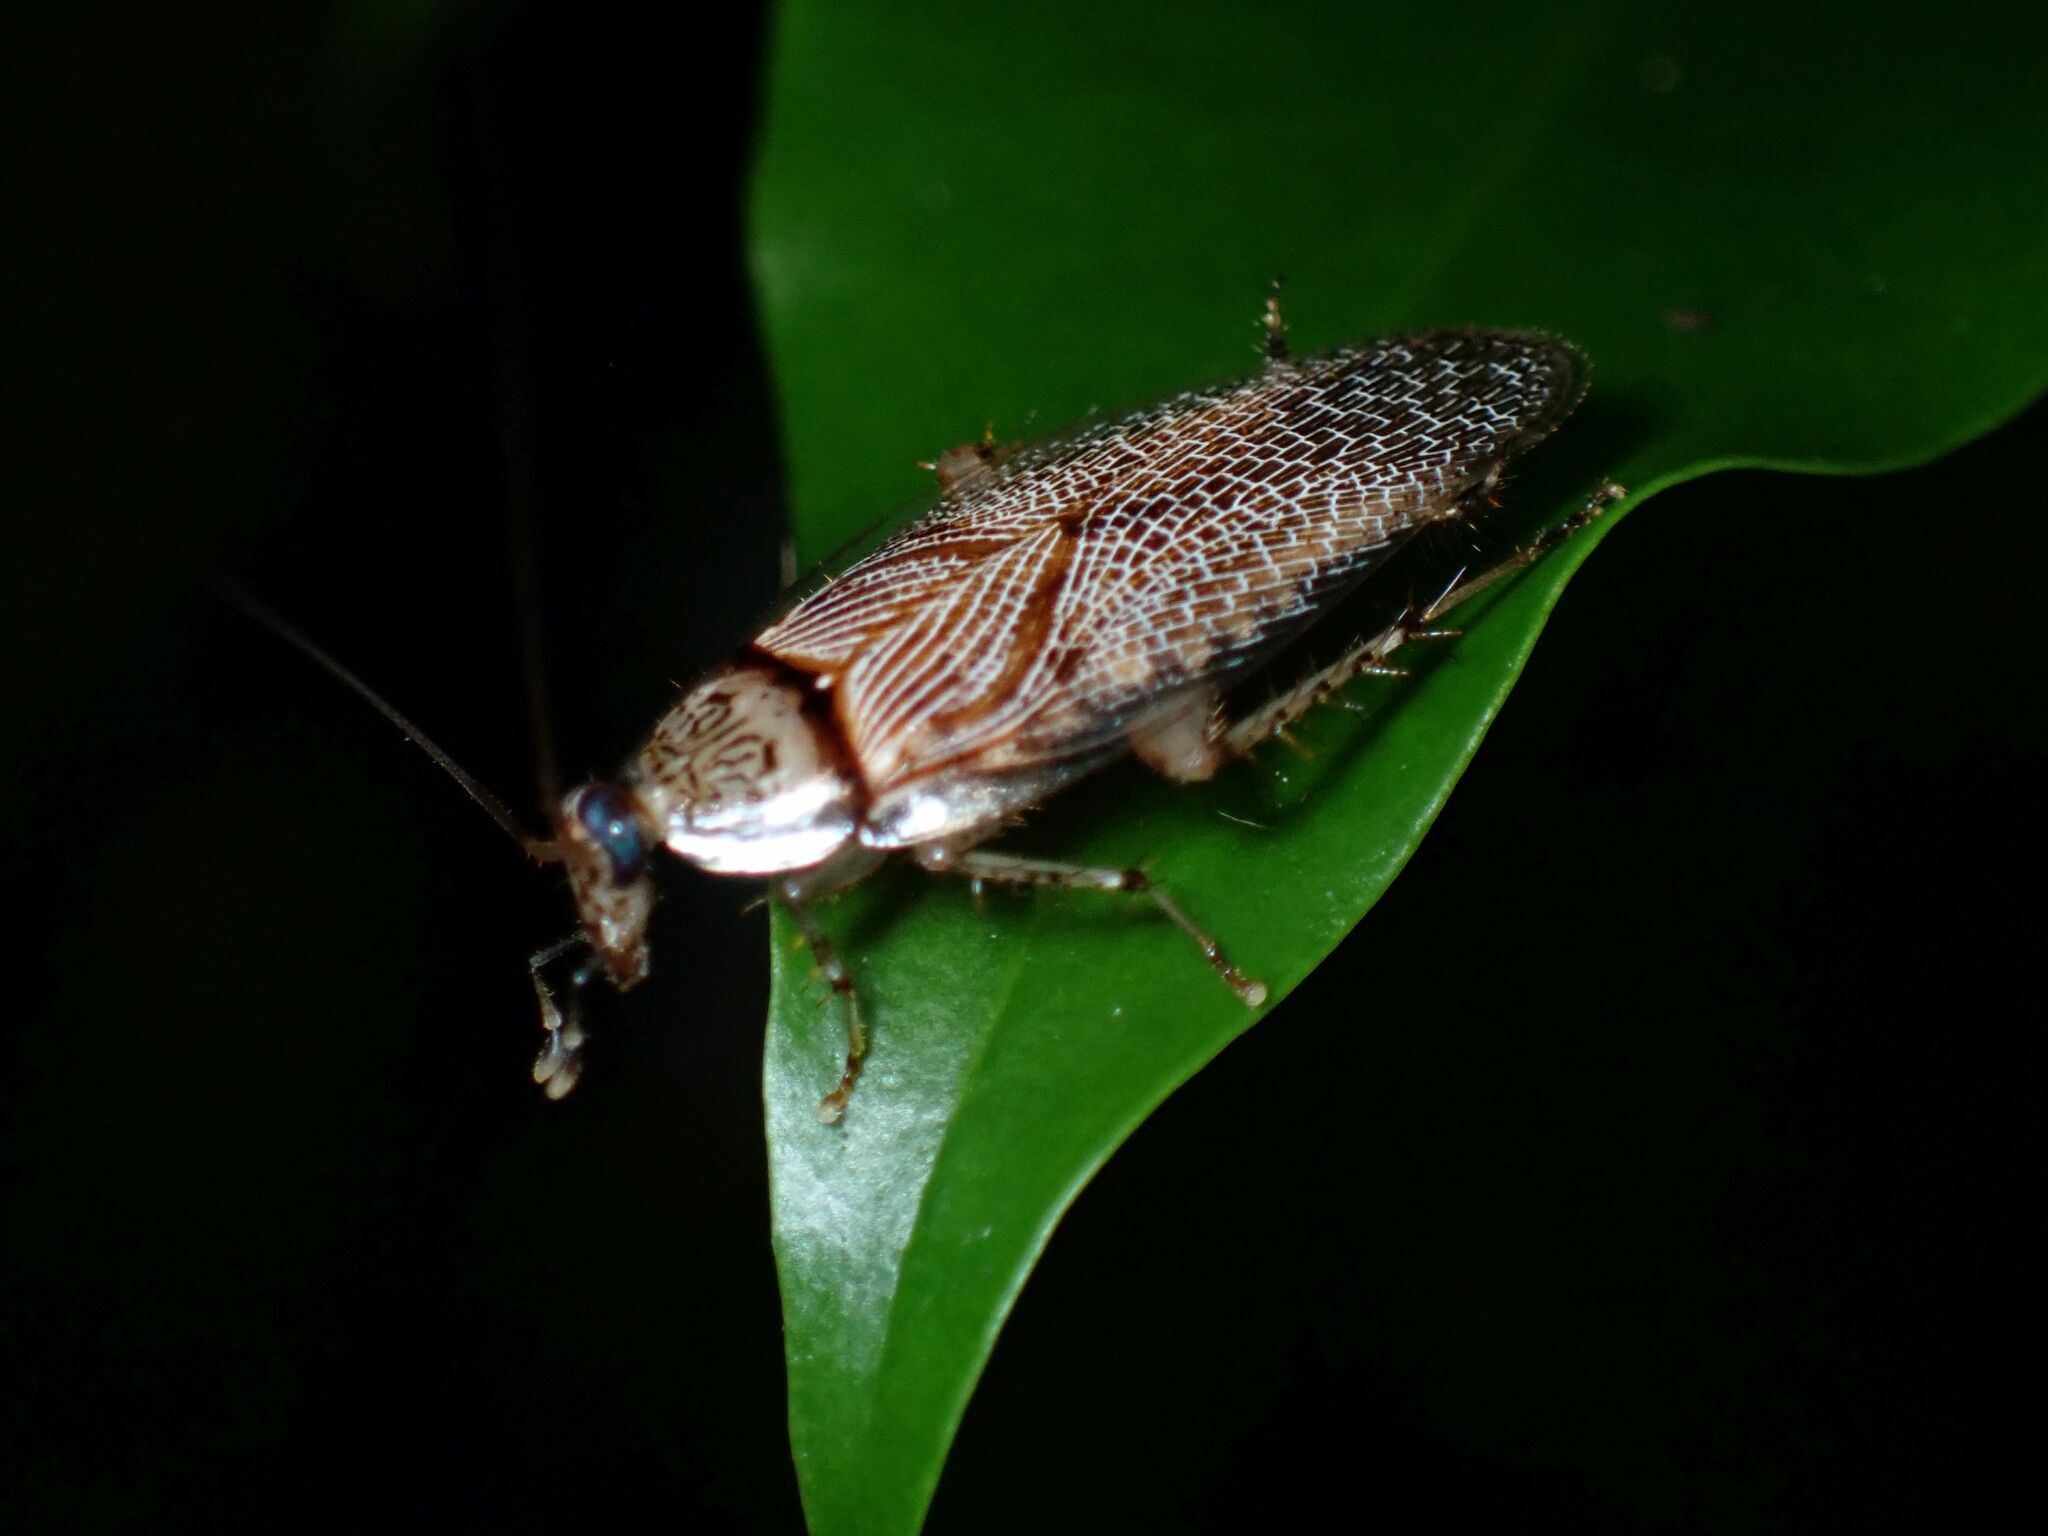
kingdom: Animalia
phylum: Arthropoda
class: Insecta
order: Blattodea
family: Ectobiidae
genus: Balta
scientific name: Balta notulata
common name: Cockroach
